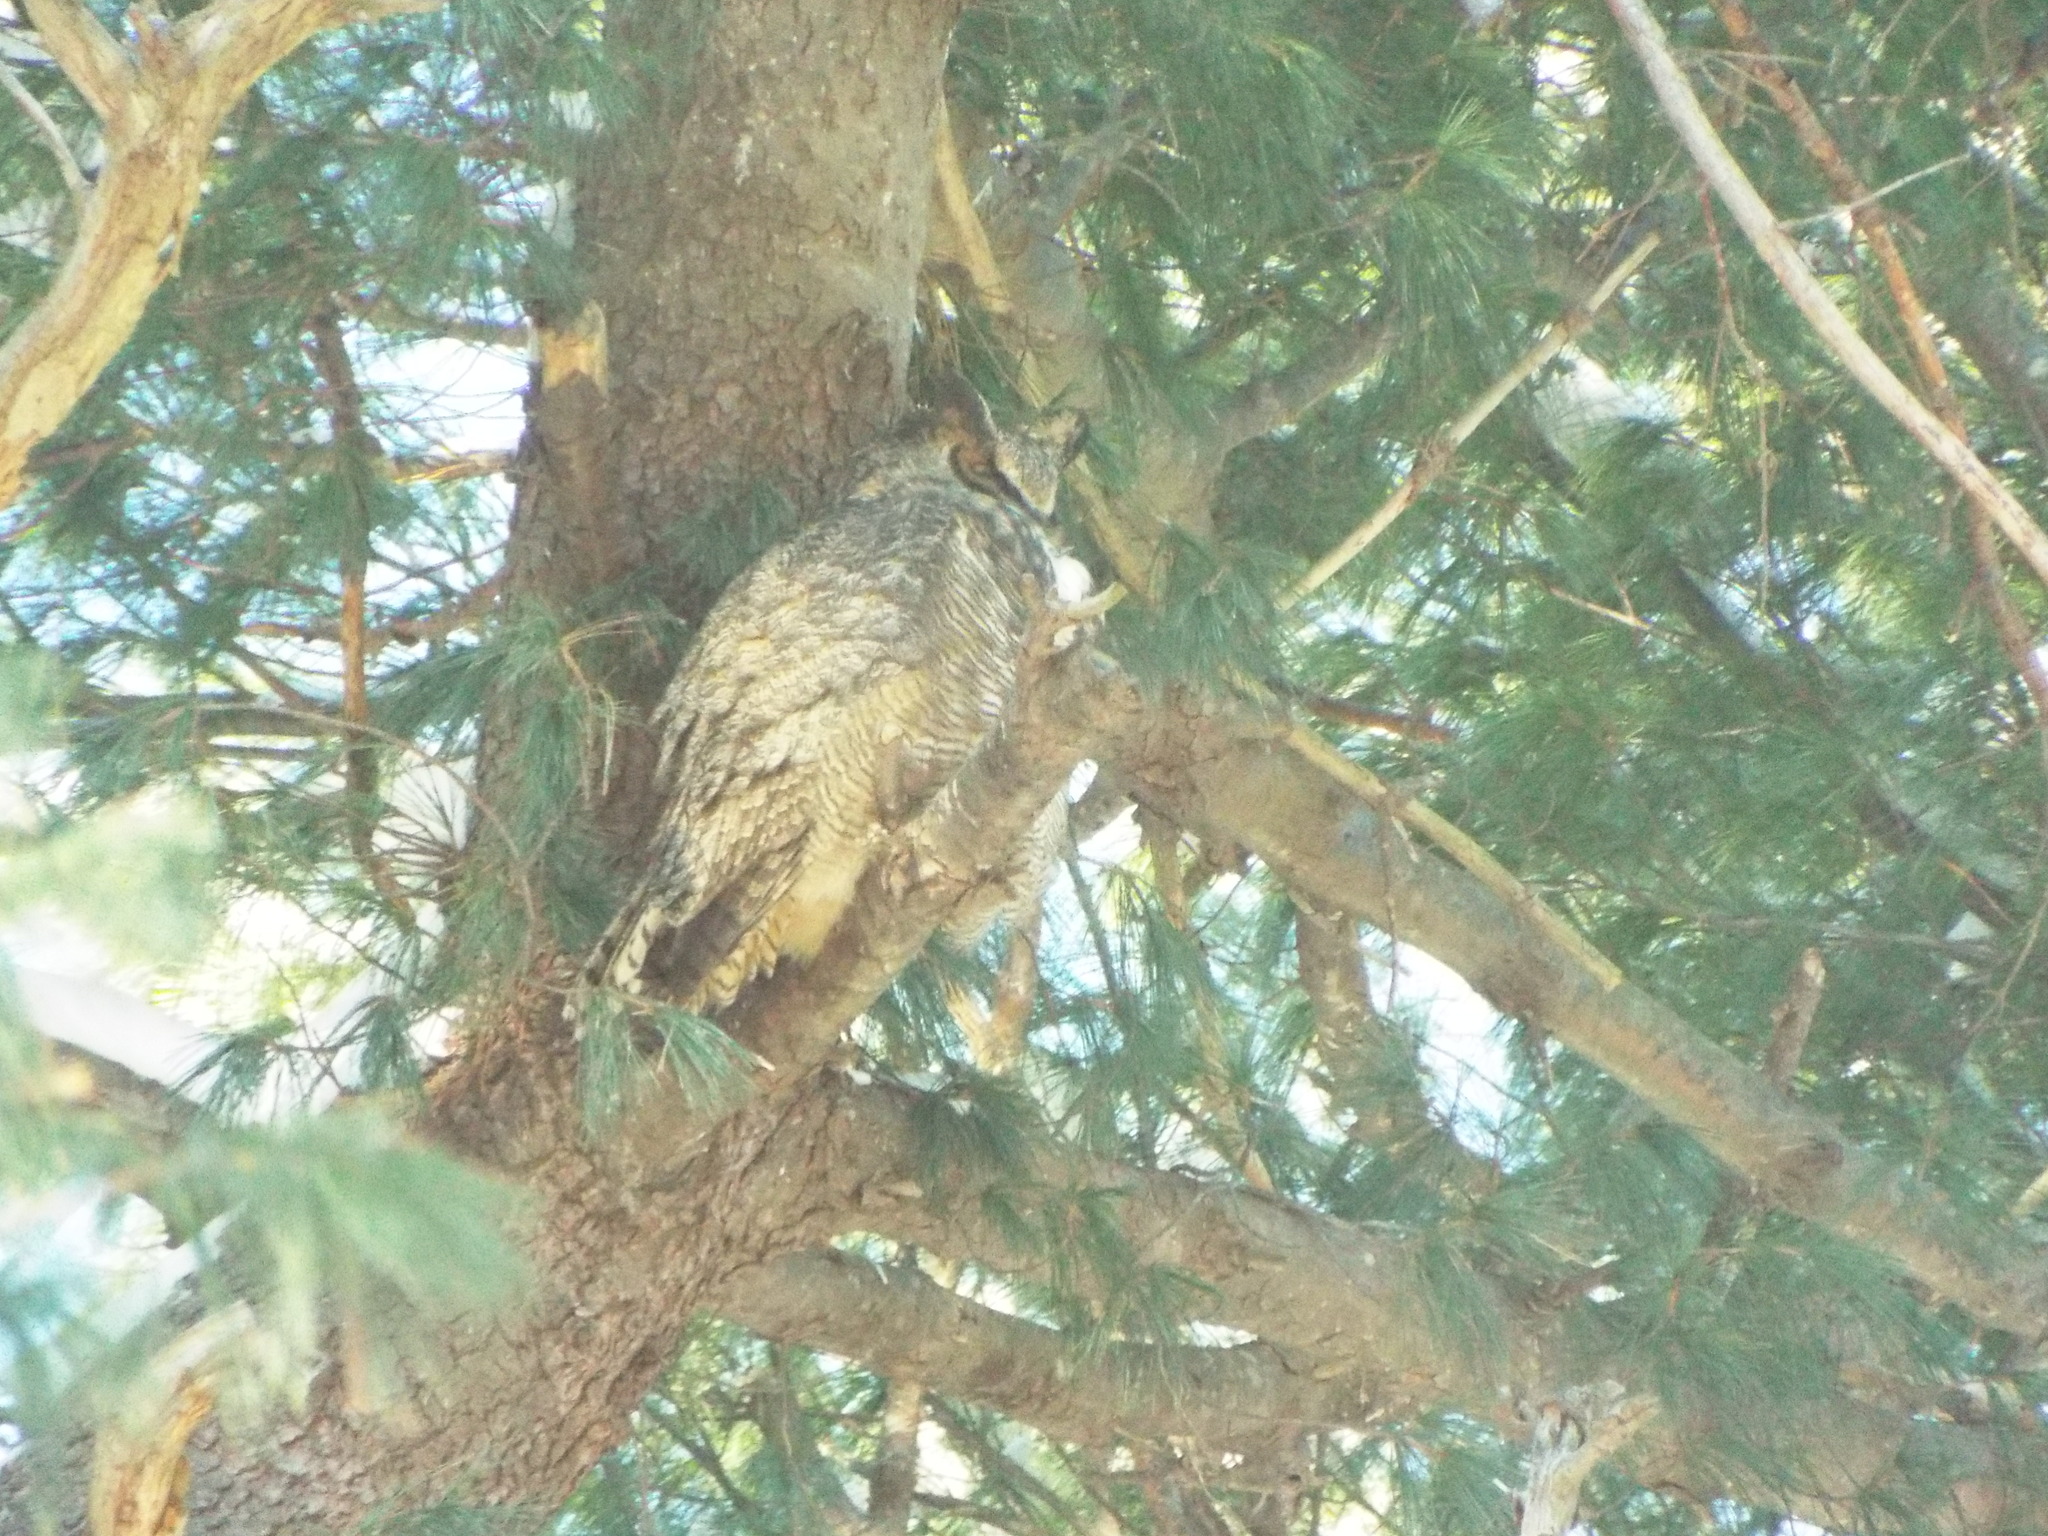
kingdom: Animalia
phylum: Chordata
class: Aves
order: Strigiformes
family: Strigidae
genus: Bubo
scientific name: Bubo virginianus
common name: Great horned owl
